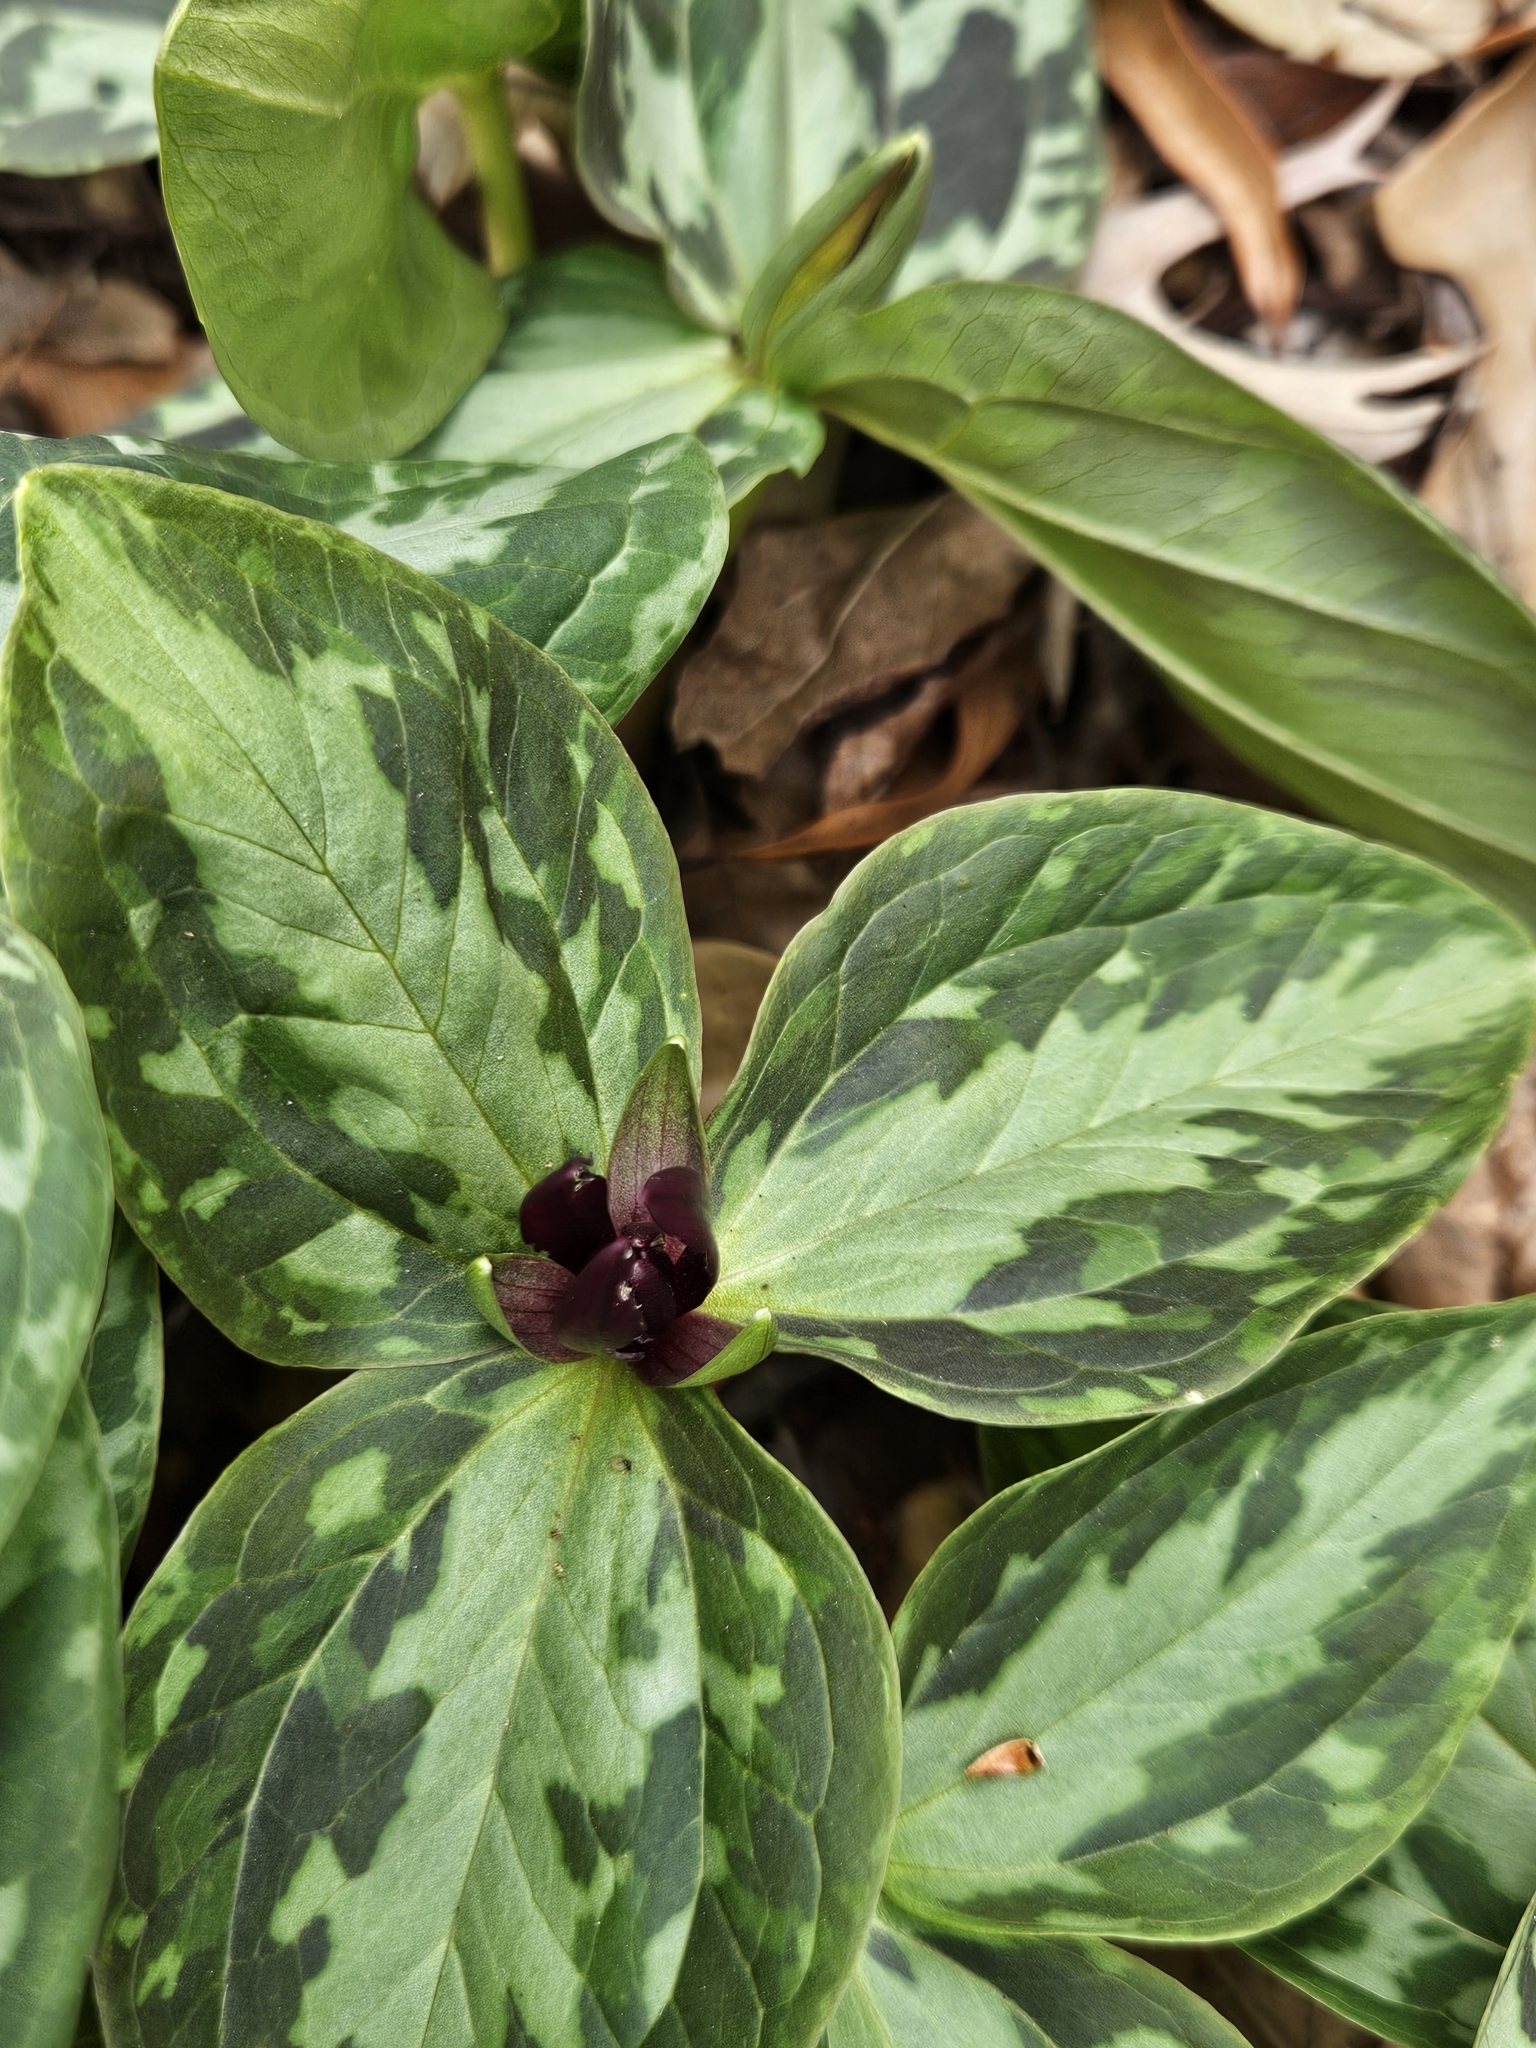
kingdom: Plantae
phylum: Tracheophyta
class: Liliopsida
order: Liliales
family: Melanthiaceae
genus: Trillium
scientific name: Trillium foetidissimum
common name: Mississippi river trillium
